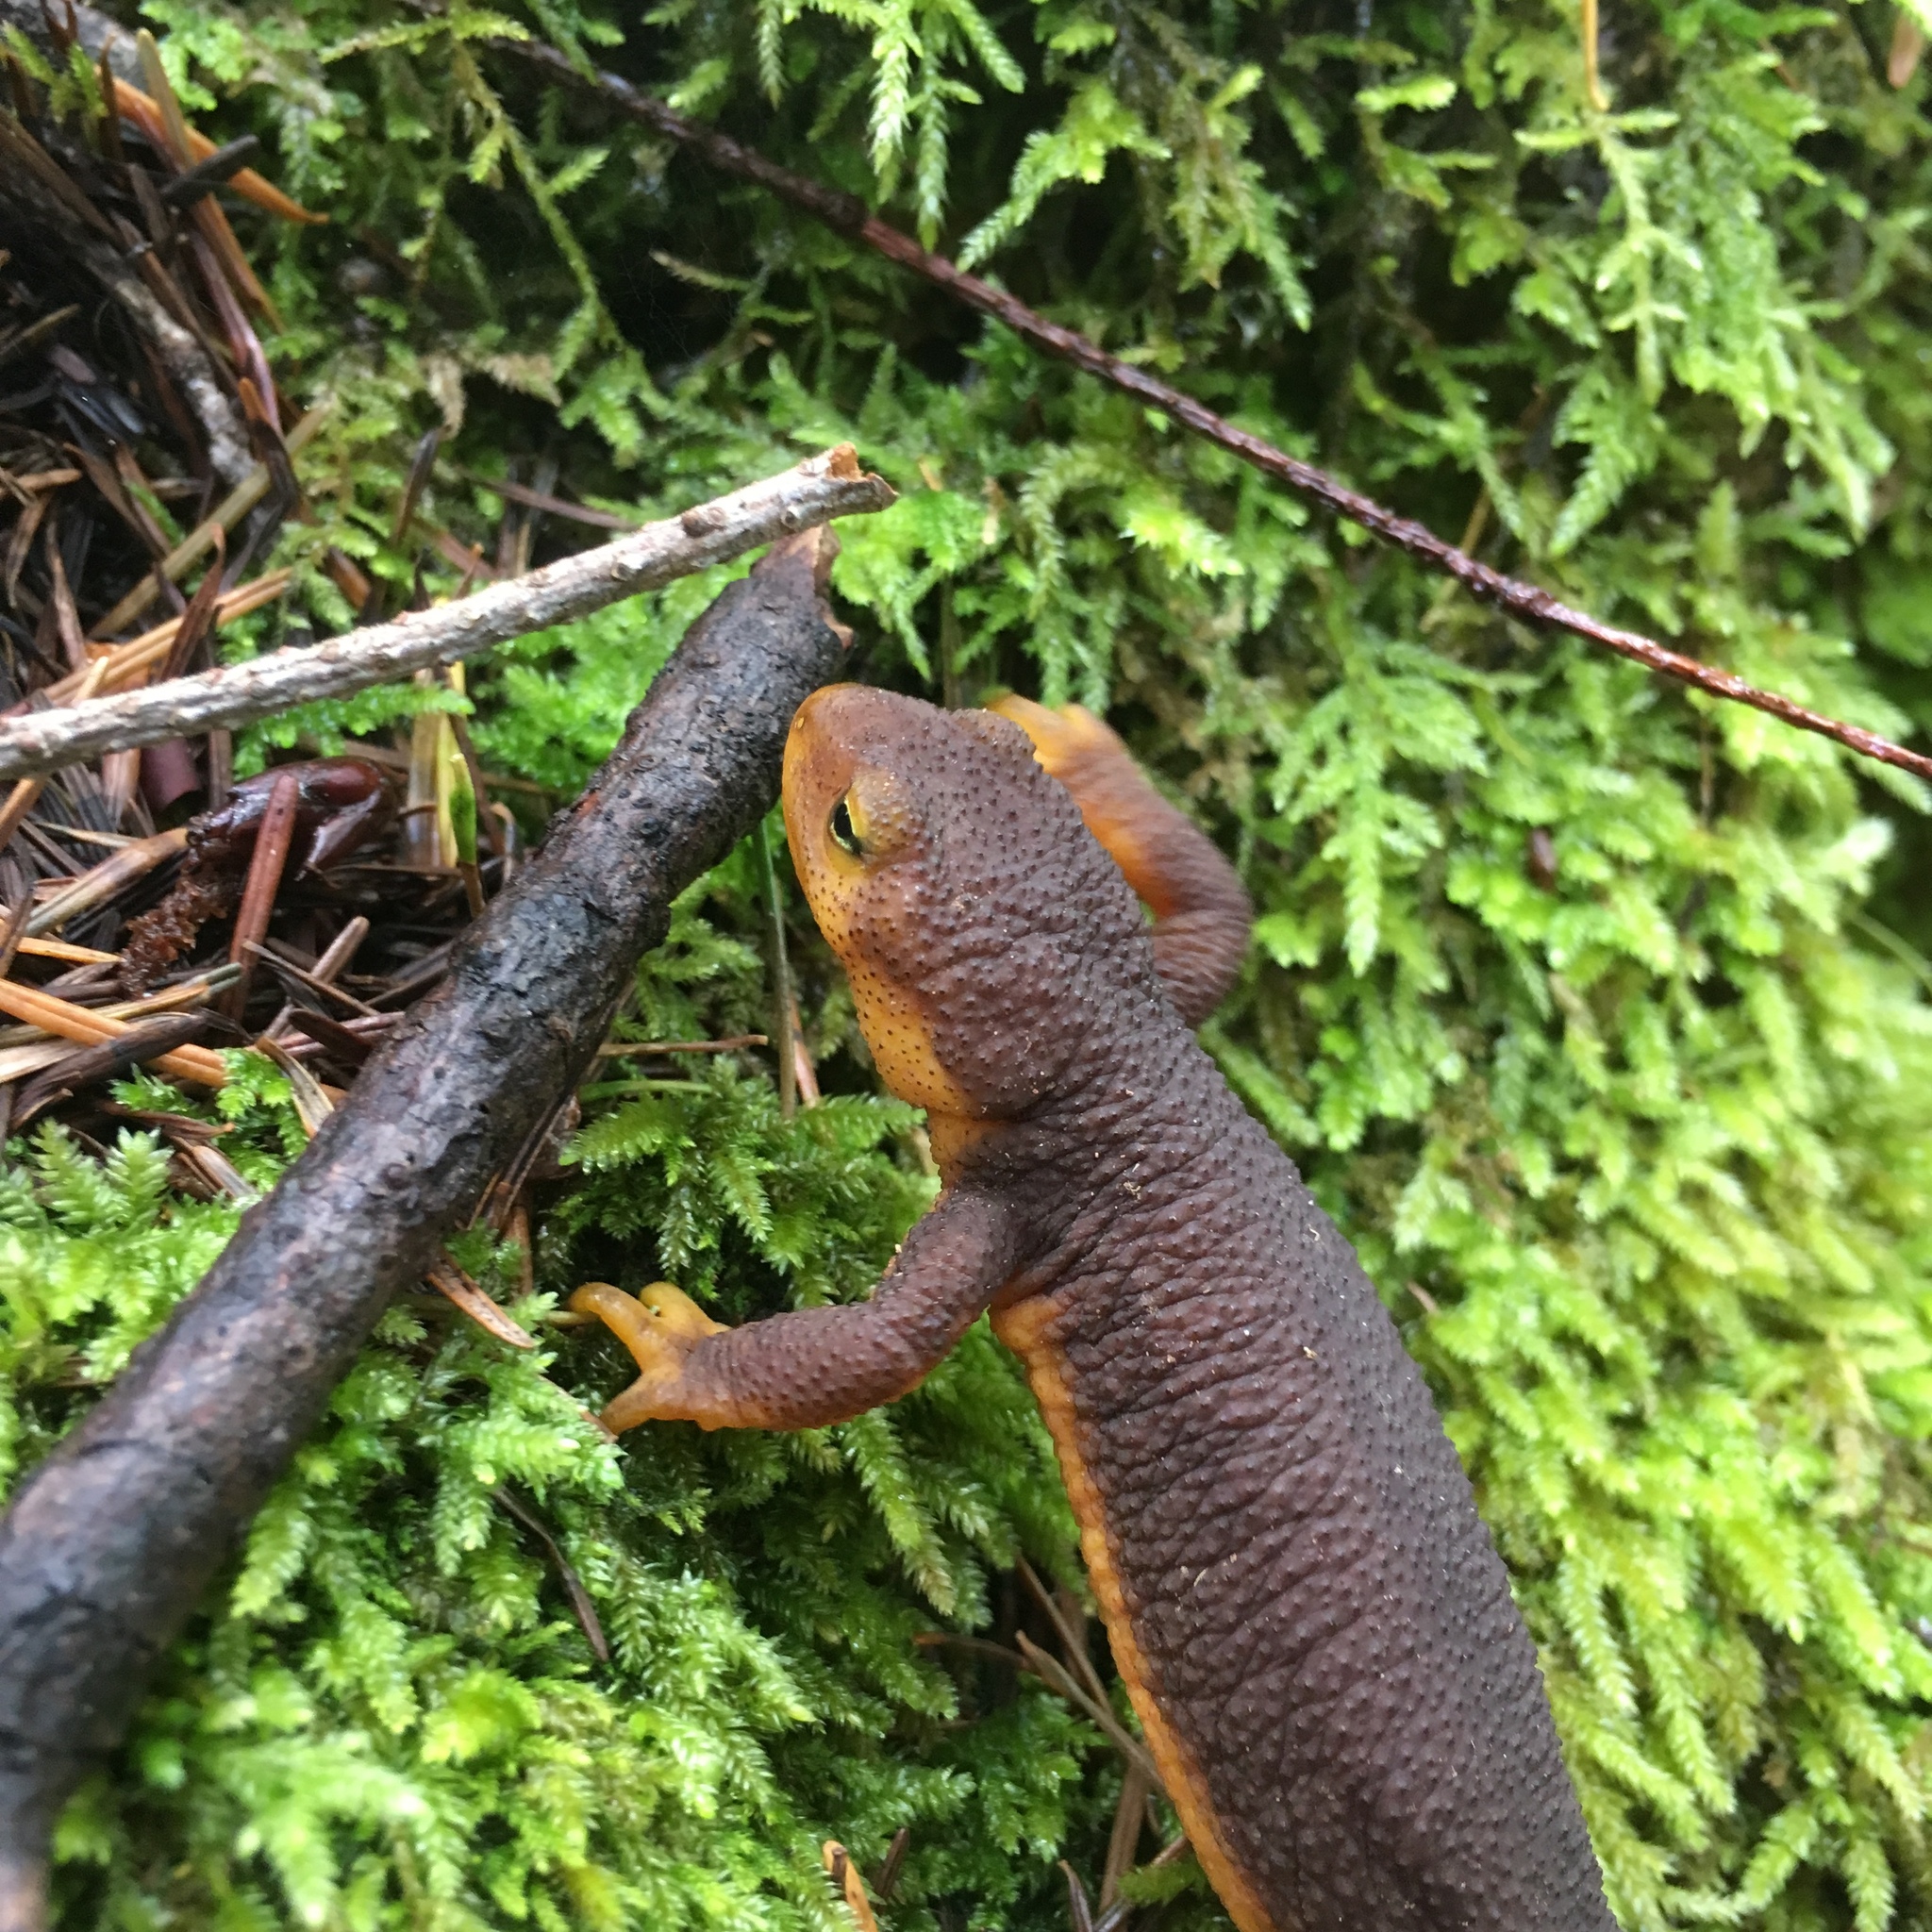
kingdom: Animalia
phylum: Chordata
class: Amphibia
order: Caudata
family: Salamandridae
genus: Taricha
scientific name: Taricha torosa
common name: California newt
